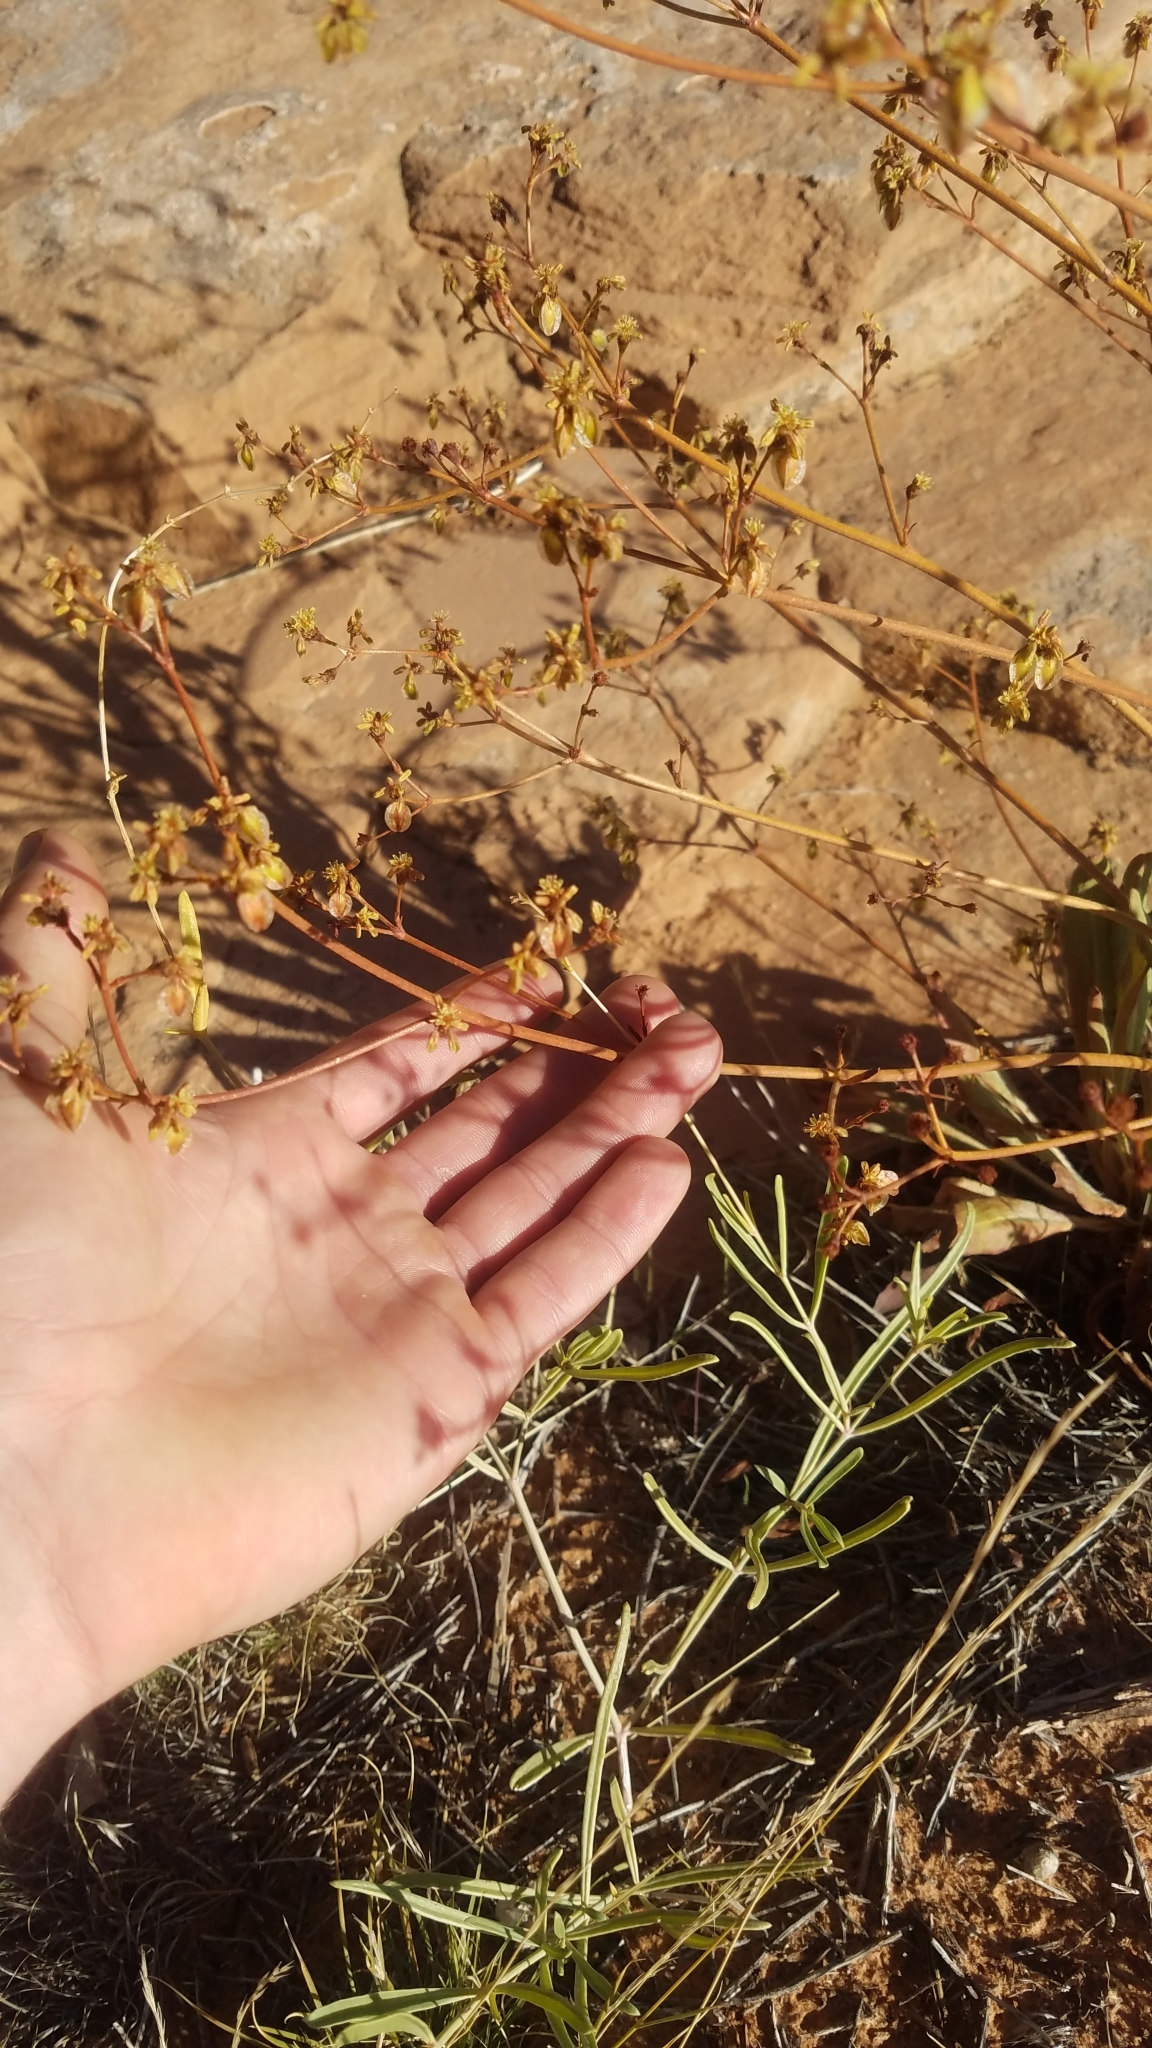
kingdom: Plantae
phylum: Tracheophyta
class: Magnoliopsida
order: Caryophyllales
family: Polygonaceae
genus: Eriogonum
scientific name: Eriogonum alatum
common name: Winged eriogonum
